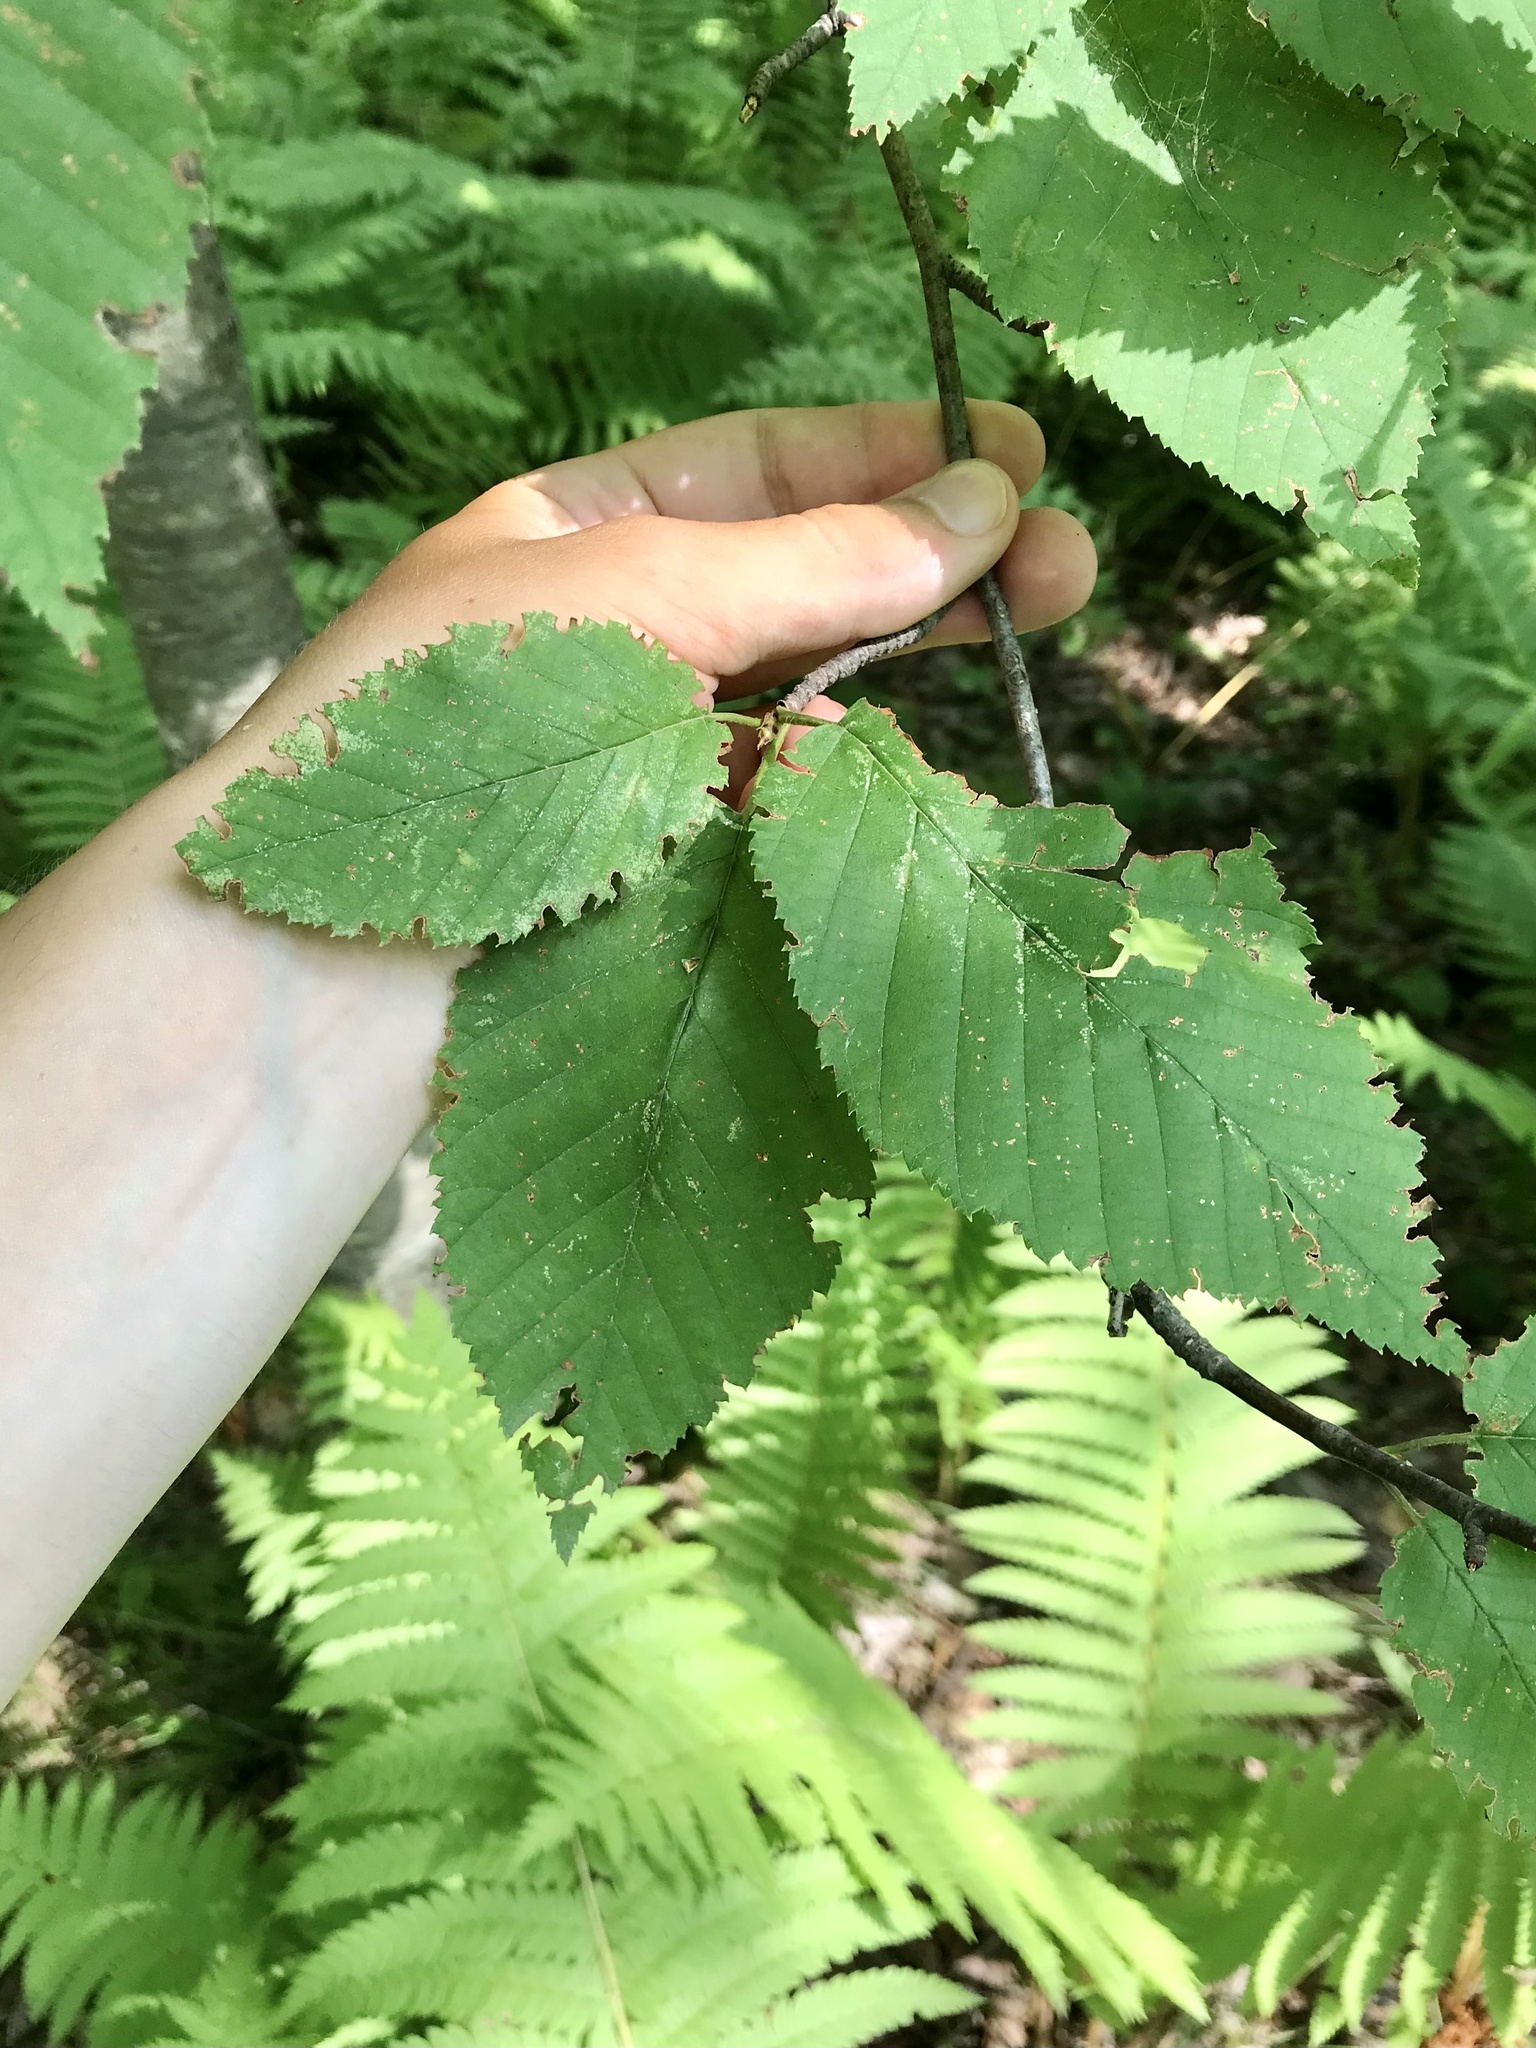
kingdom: Plantae
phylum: Tracheophyta
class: Magnoliopsida
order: Fagales
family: Betulaceae
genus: Betula
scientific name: Betula alleghaniensis
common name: Yellow birch
